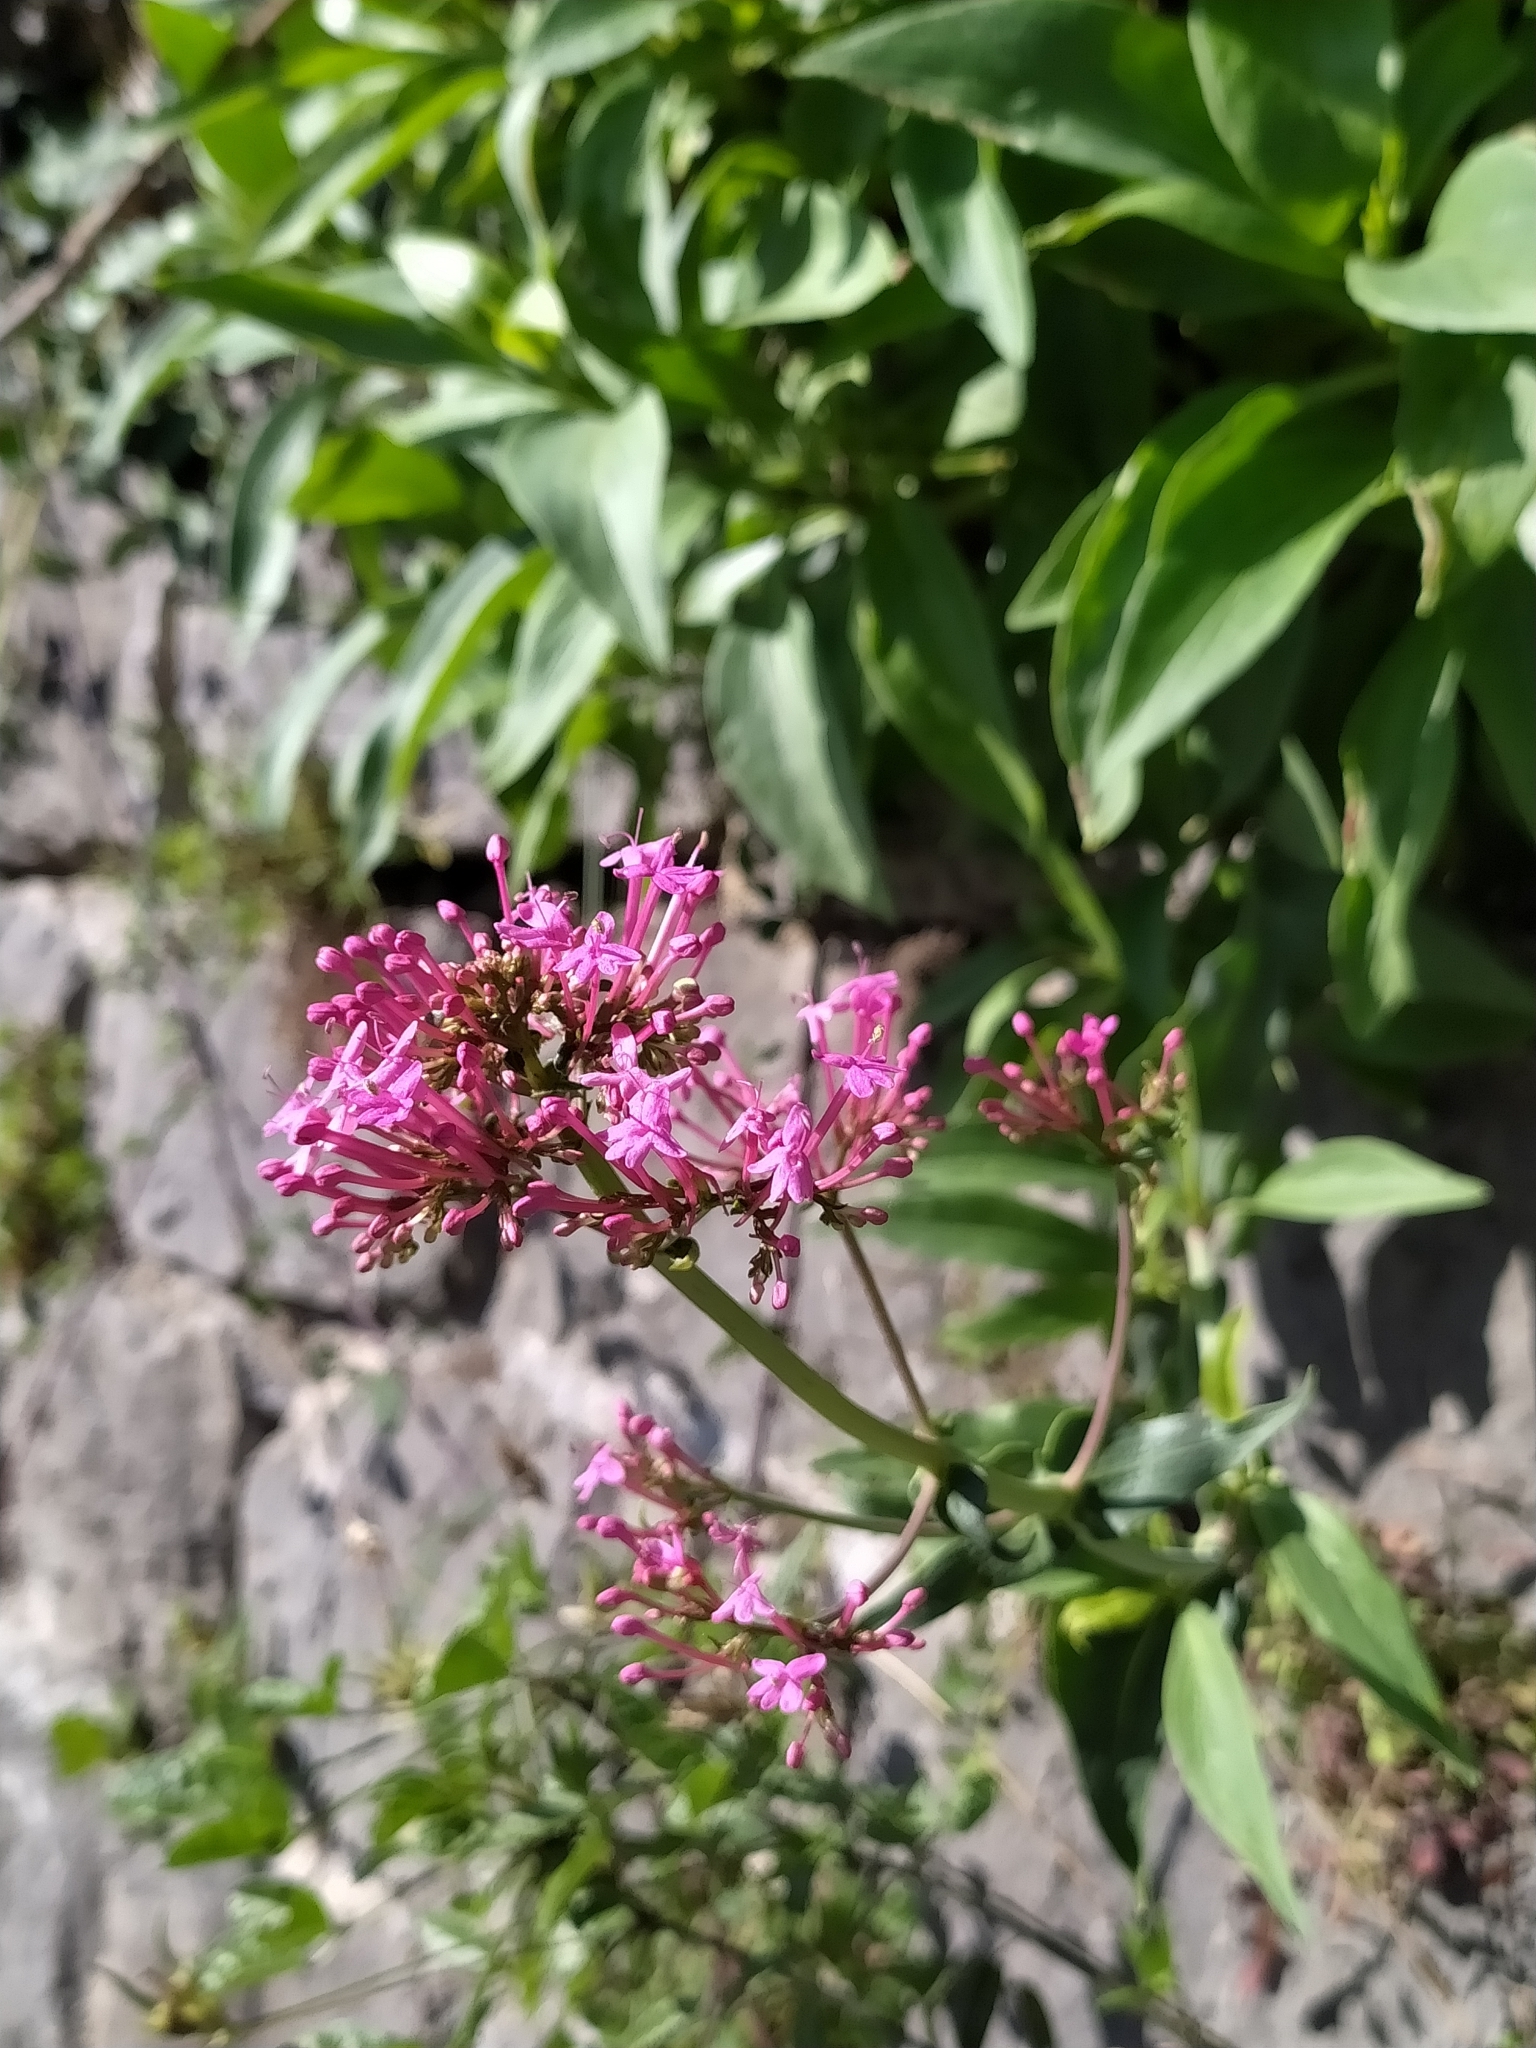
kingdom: Plantae
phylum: Tracheophyta
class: Magnoliopsida
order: Dipsacales
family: Caprifoliaceae
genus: Centranthus
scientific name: Centranthus ruber
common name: Red valerian
